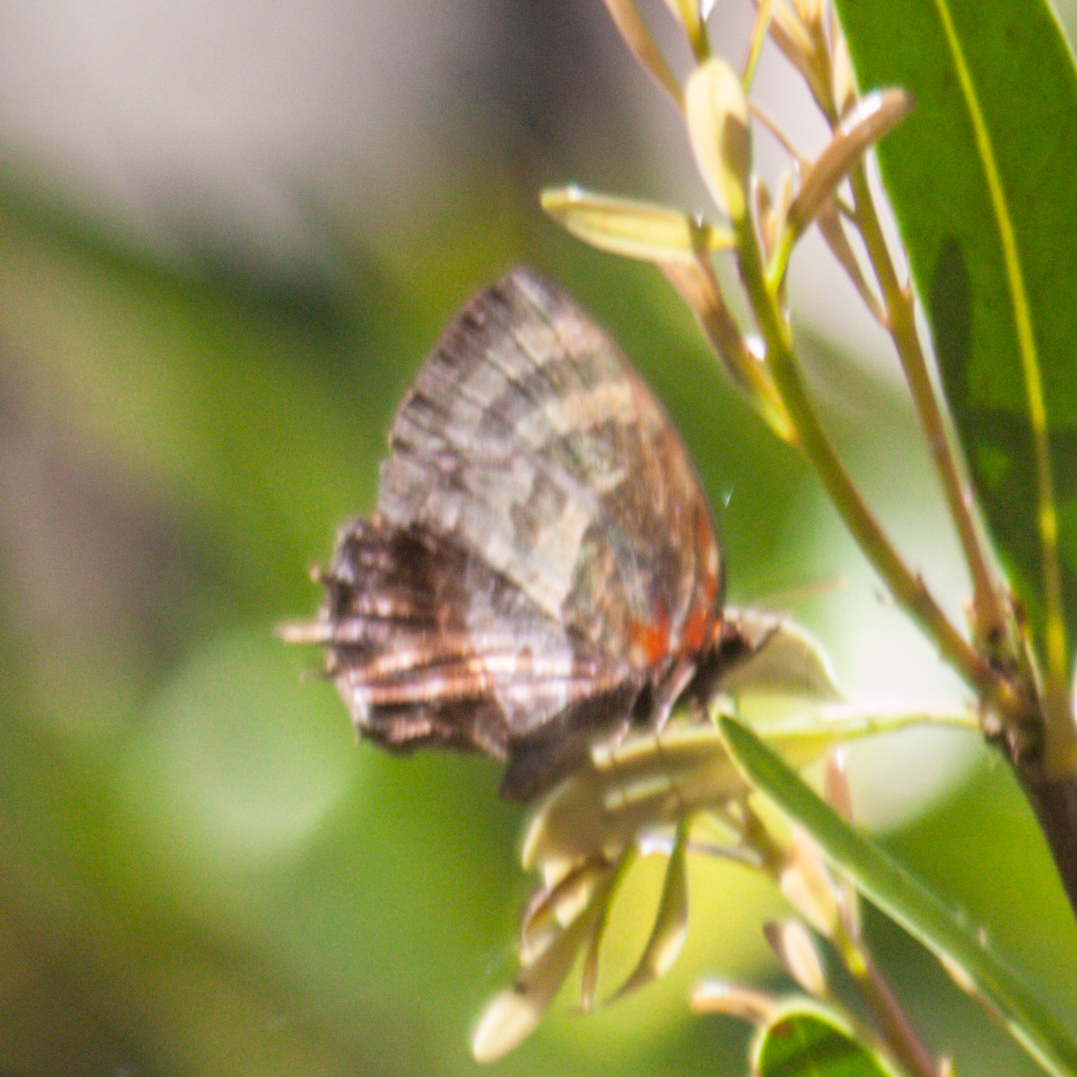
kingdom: Animalia
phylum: Arthropoda
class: Insecta
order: Lepidoptera
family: Lycaenidae
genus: Flos
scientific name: Flos apidanus
